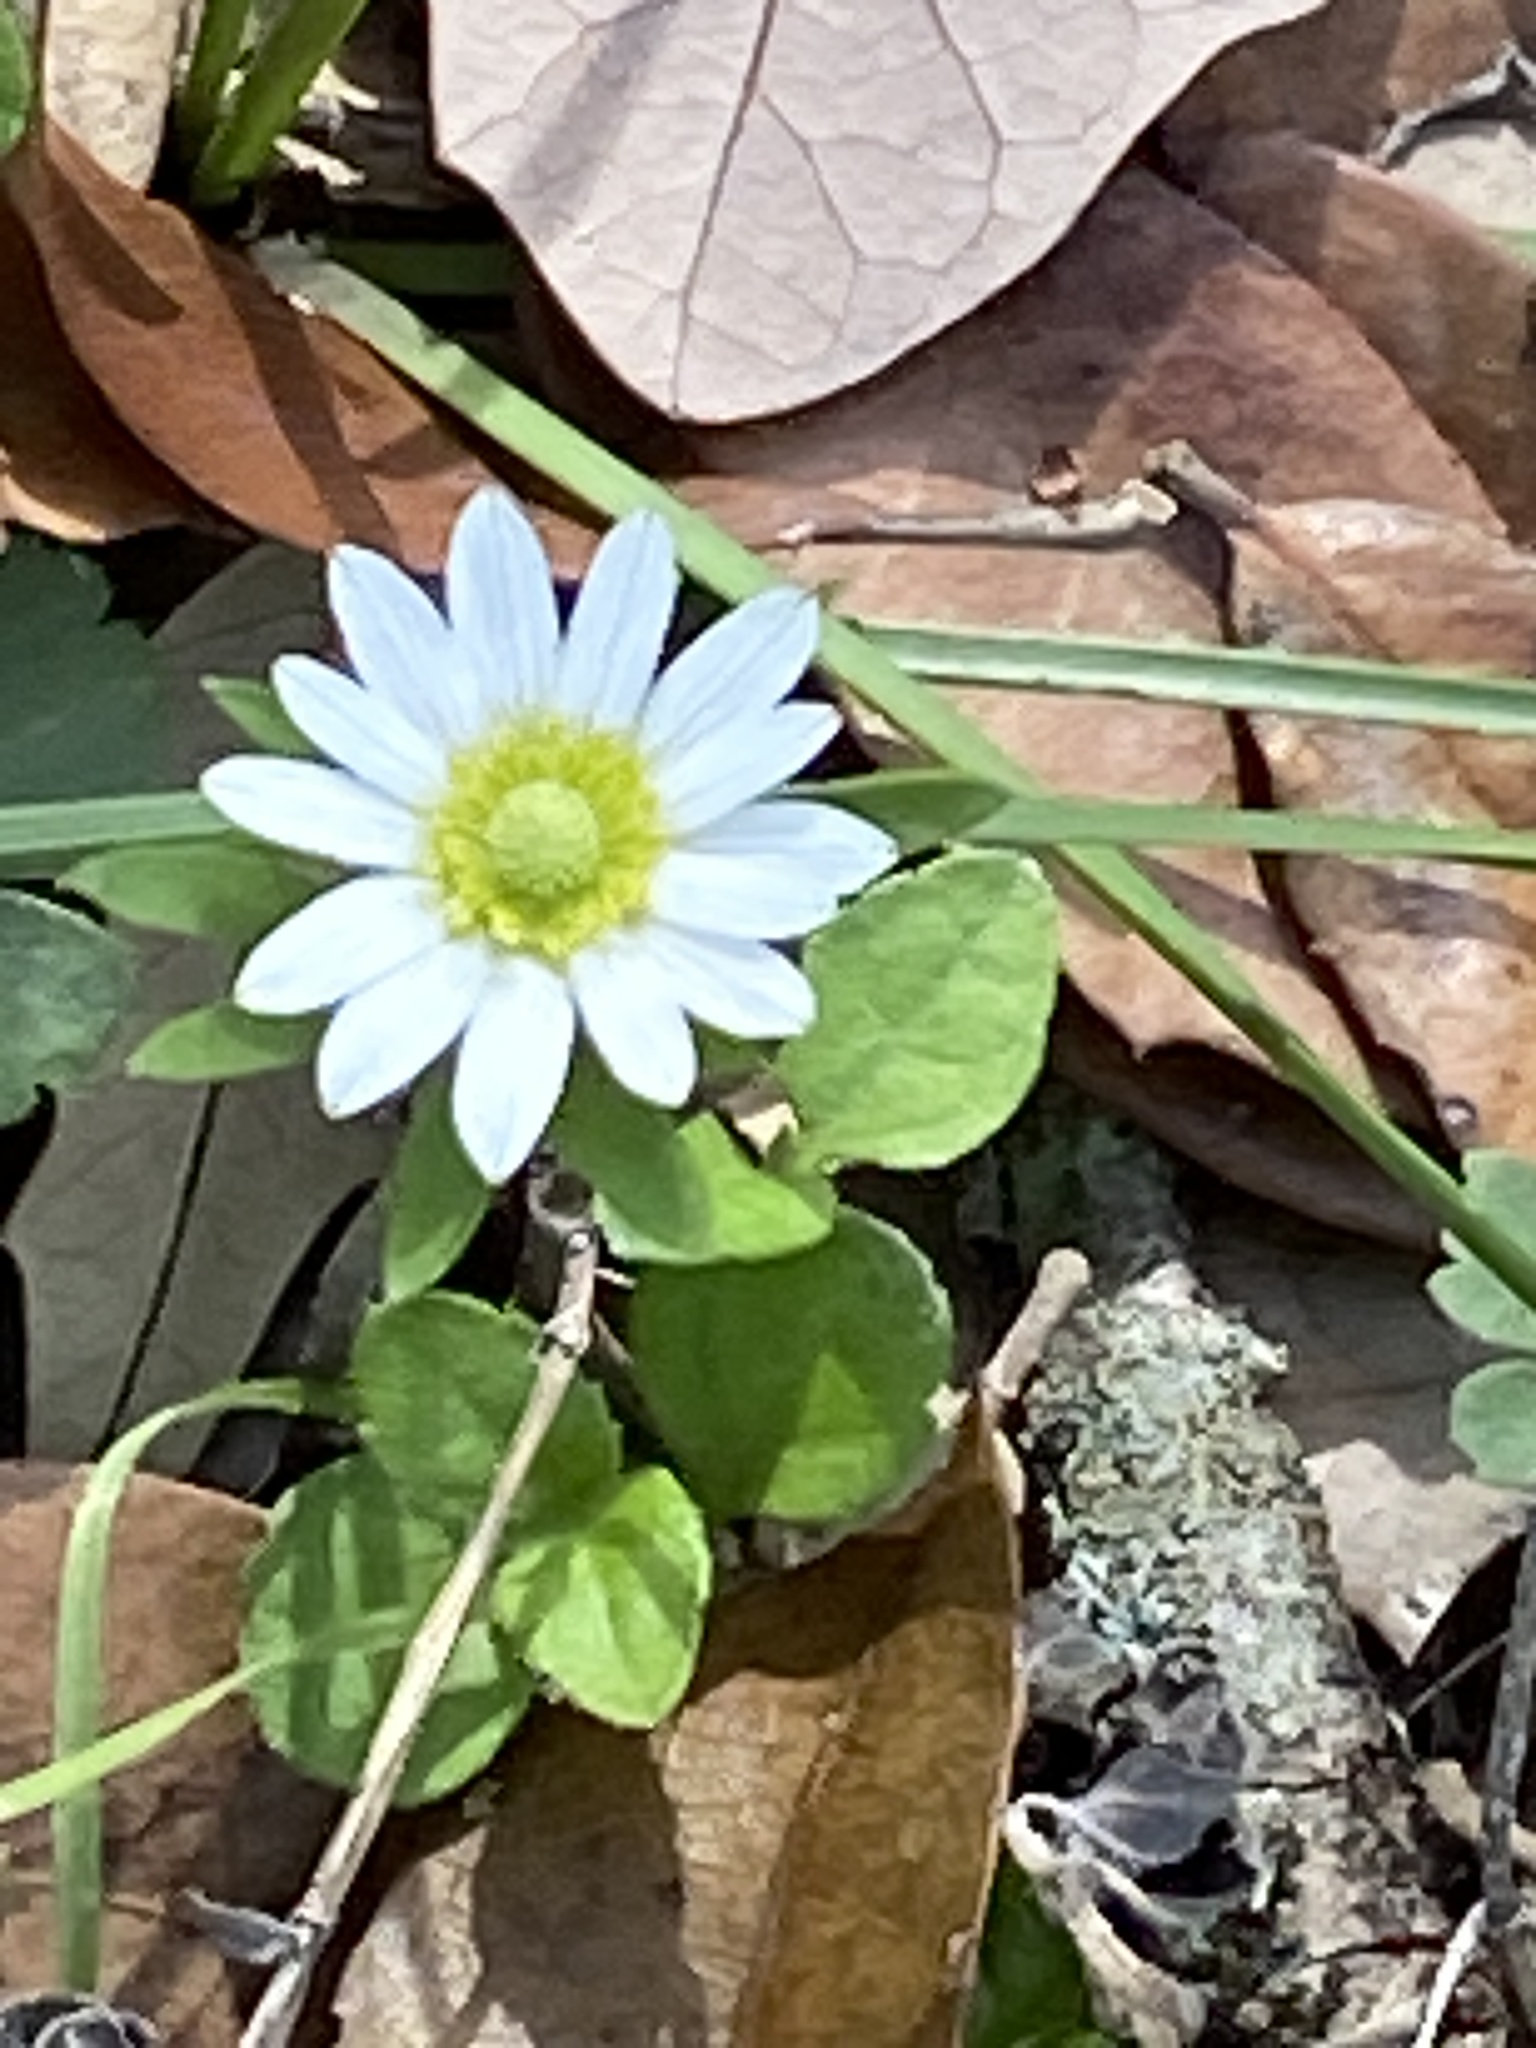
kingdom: Plantae
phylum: Tracheophyta
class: Magnoliopsida
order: Ranunculales
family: Ranunculaceae
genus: Anemone
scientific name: Anemone berlandieri
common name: Ten-petal anemone
